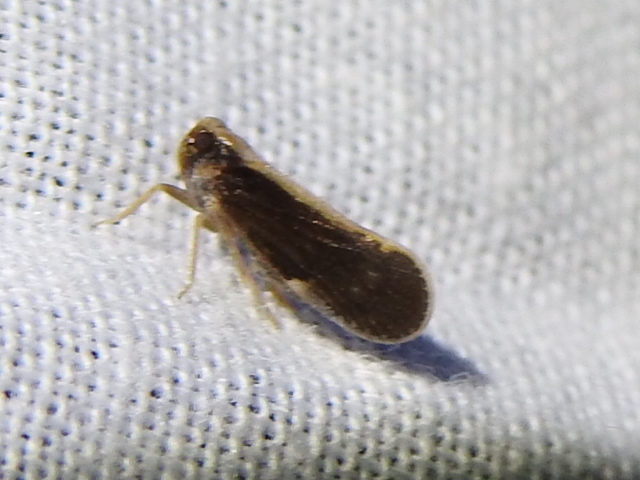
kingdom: Animalia
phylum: Arthropoda
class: Insecta
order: Hemiptera
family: Cixiidae
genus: Pintalia
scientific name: Pintalia delicata
